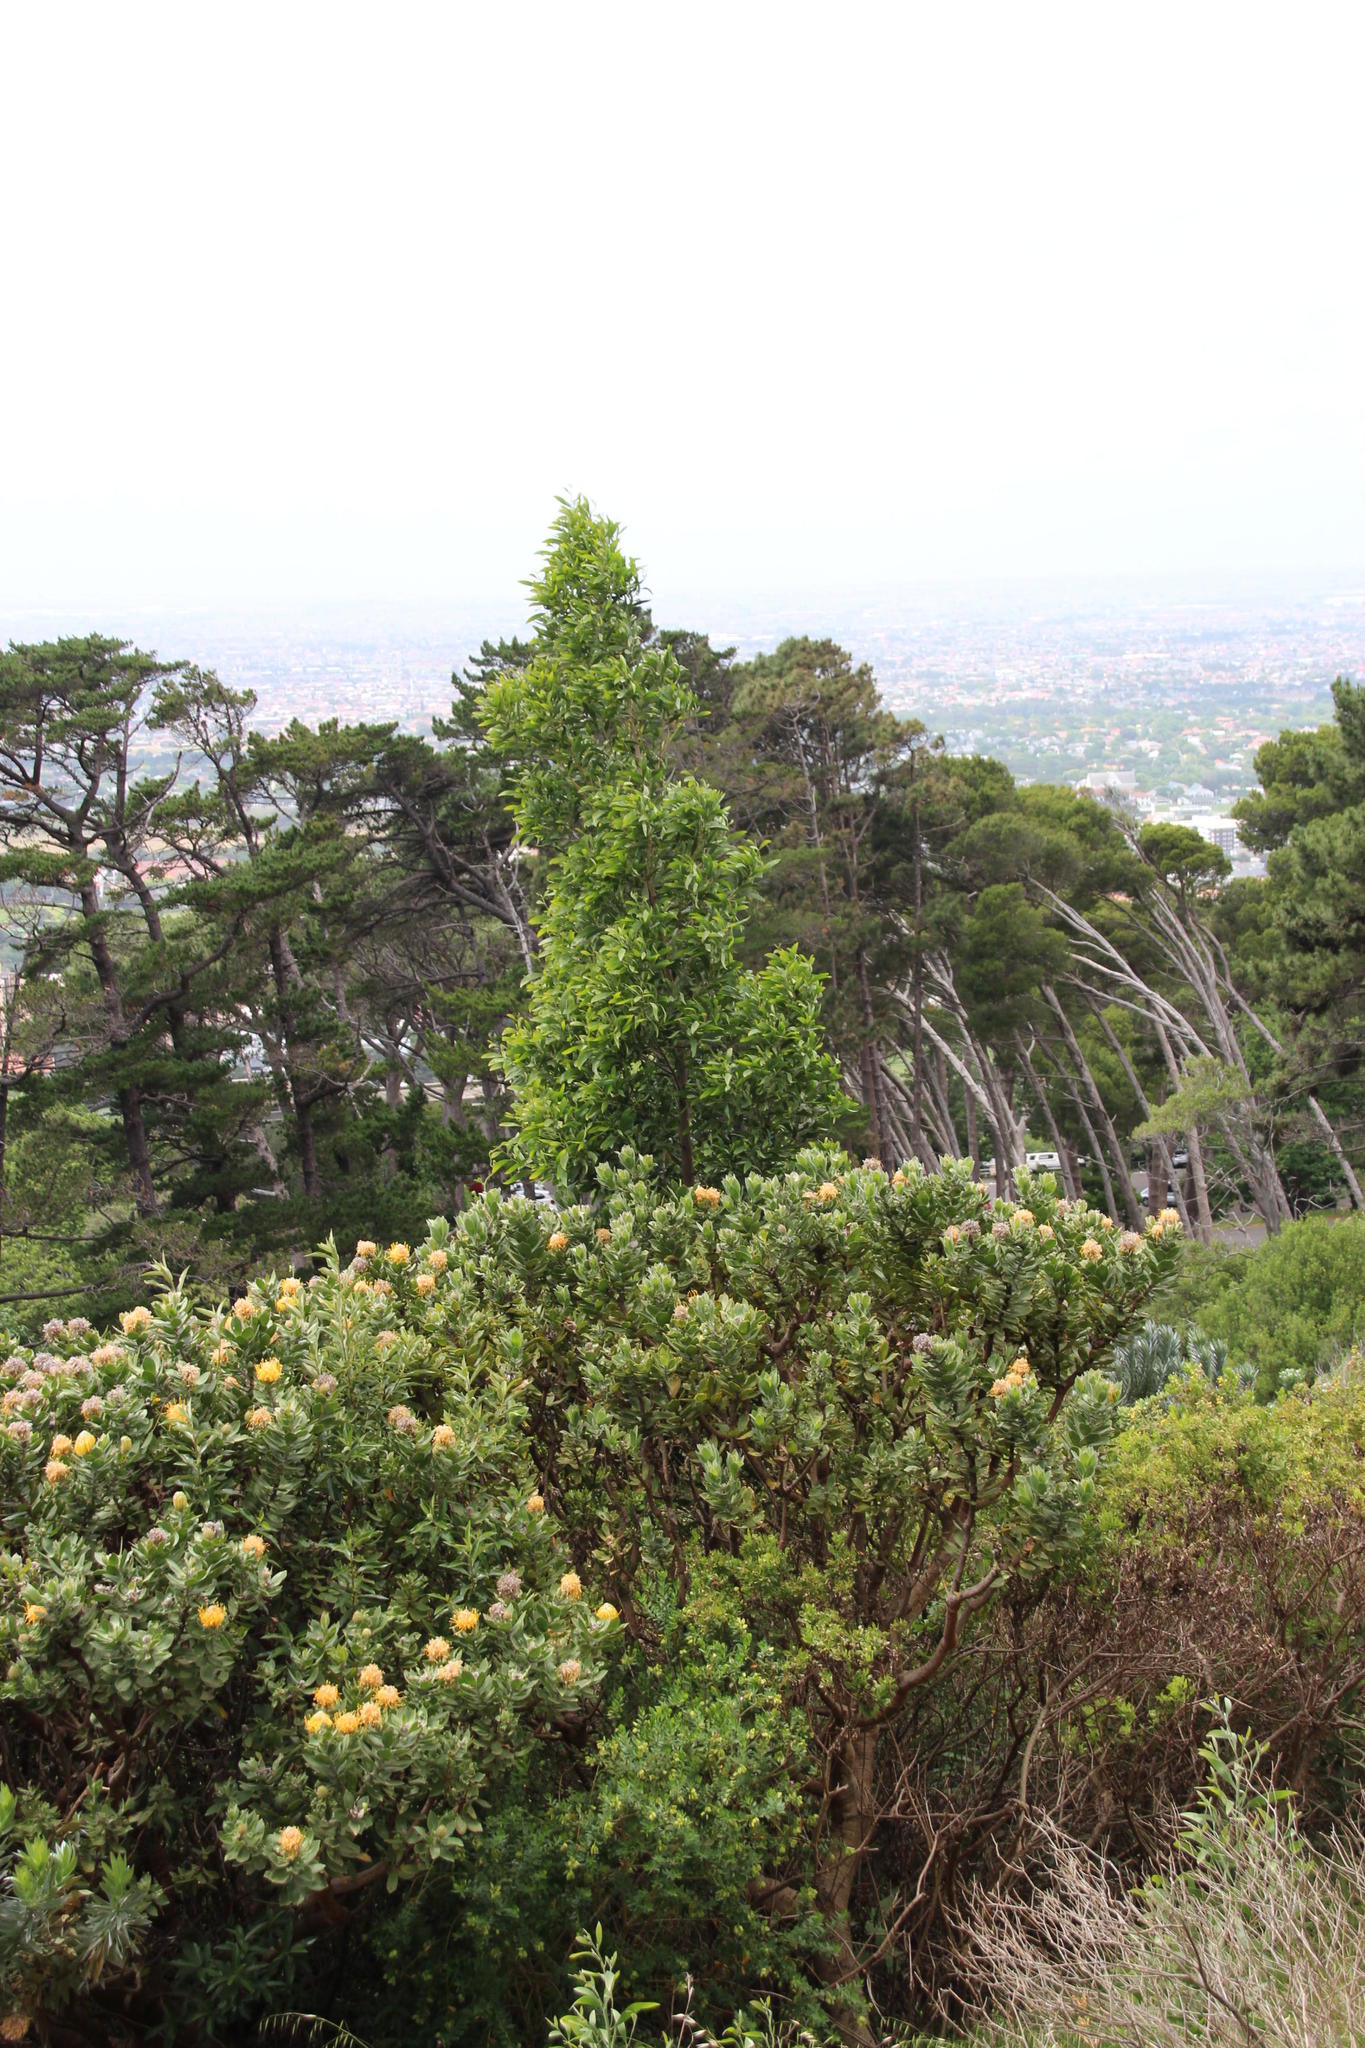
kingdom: Plantae
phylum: Tracheophyta
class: Magnoliopsida
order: Fabales
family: Fabaceae
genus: Acacia
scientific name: Acacia melanoxylon
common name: Blackwood
